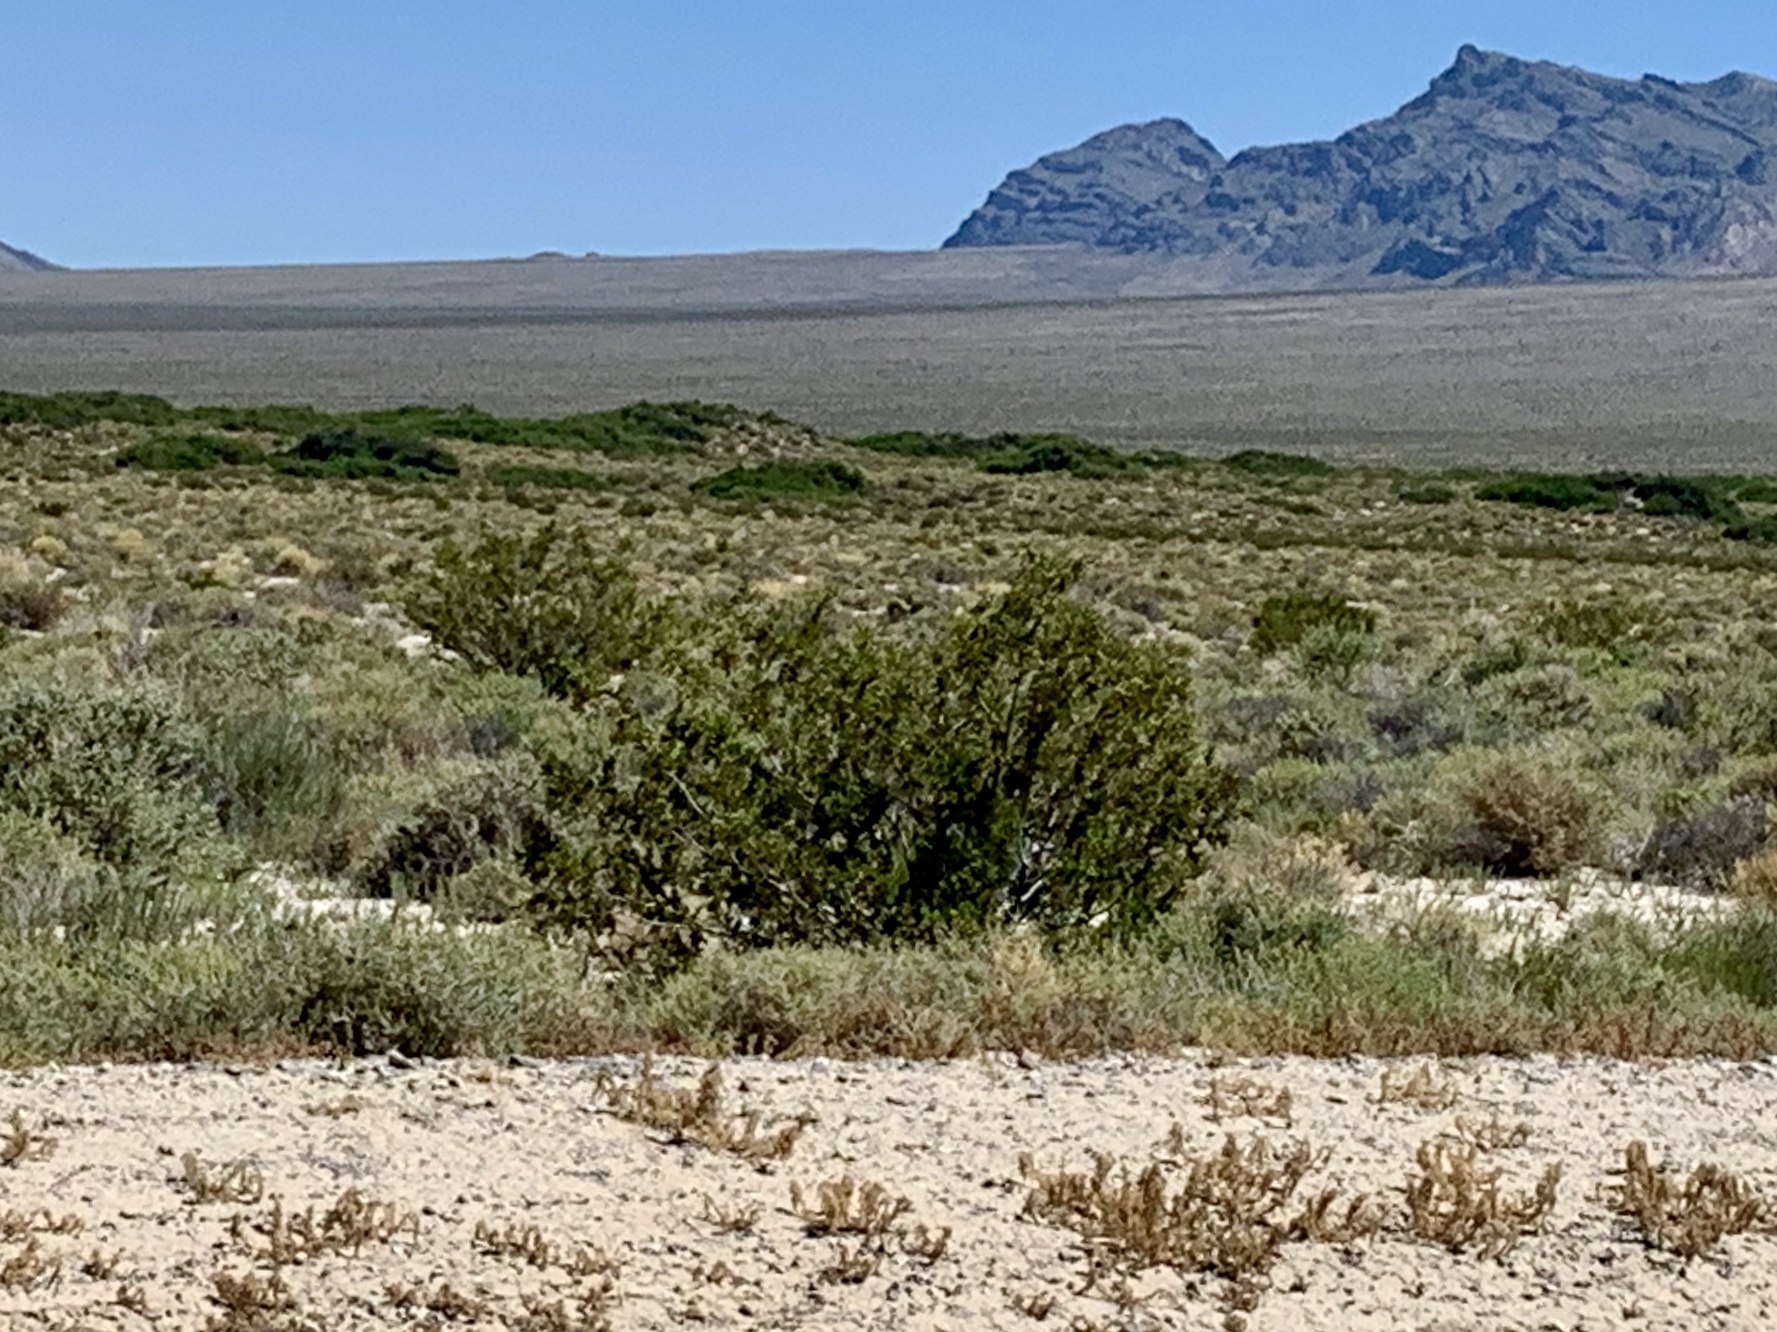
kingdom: Plantae
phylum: Tracheophyta
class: Magnoliopsida
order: Zygophyllales
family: Zygophyllaceae
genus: Larrea
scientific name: Larrea tridentata
